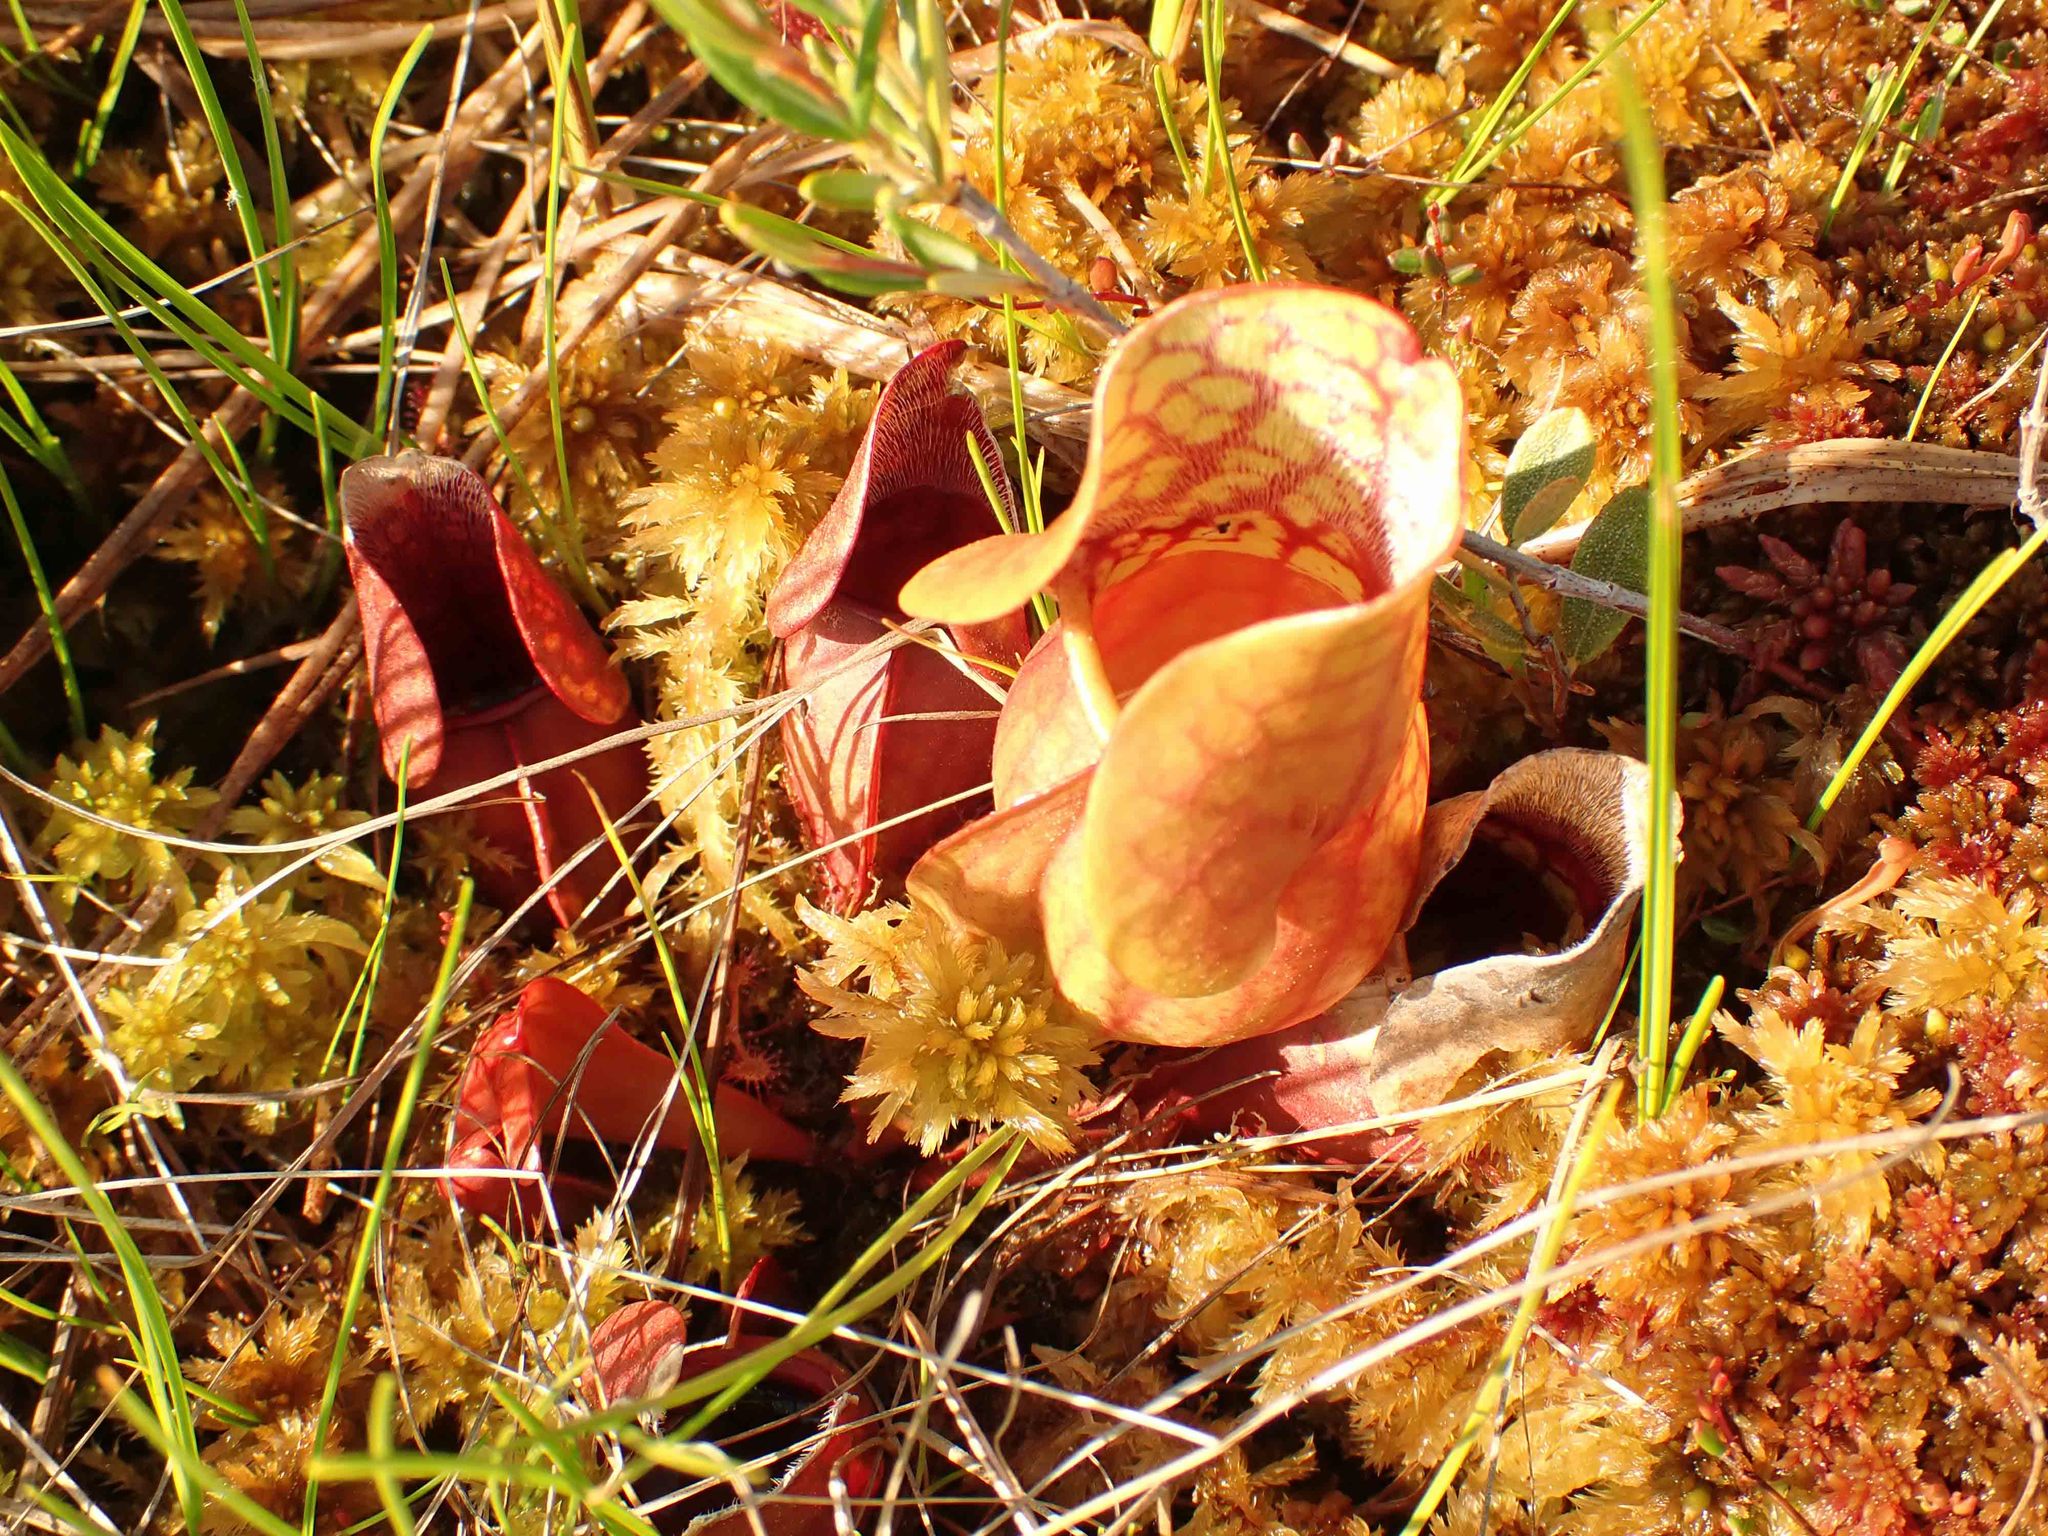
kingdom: Plantae
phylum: Tracheophyta
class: Magnoliopsida
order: Ericales
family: Sarraceniaceae
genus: Sarracenia
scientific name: Sarracenia purpurea
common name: Pitcherplant
